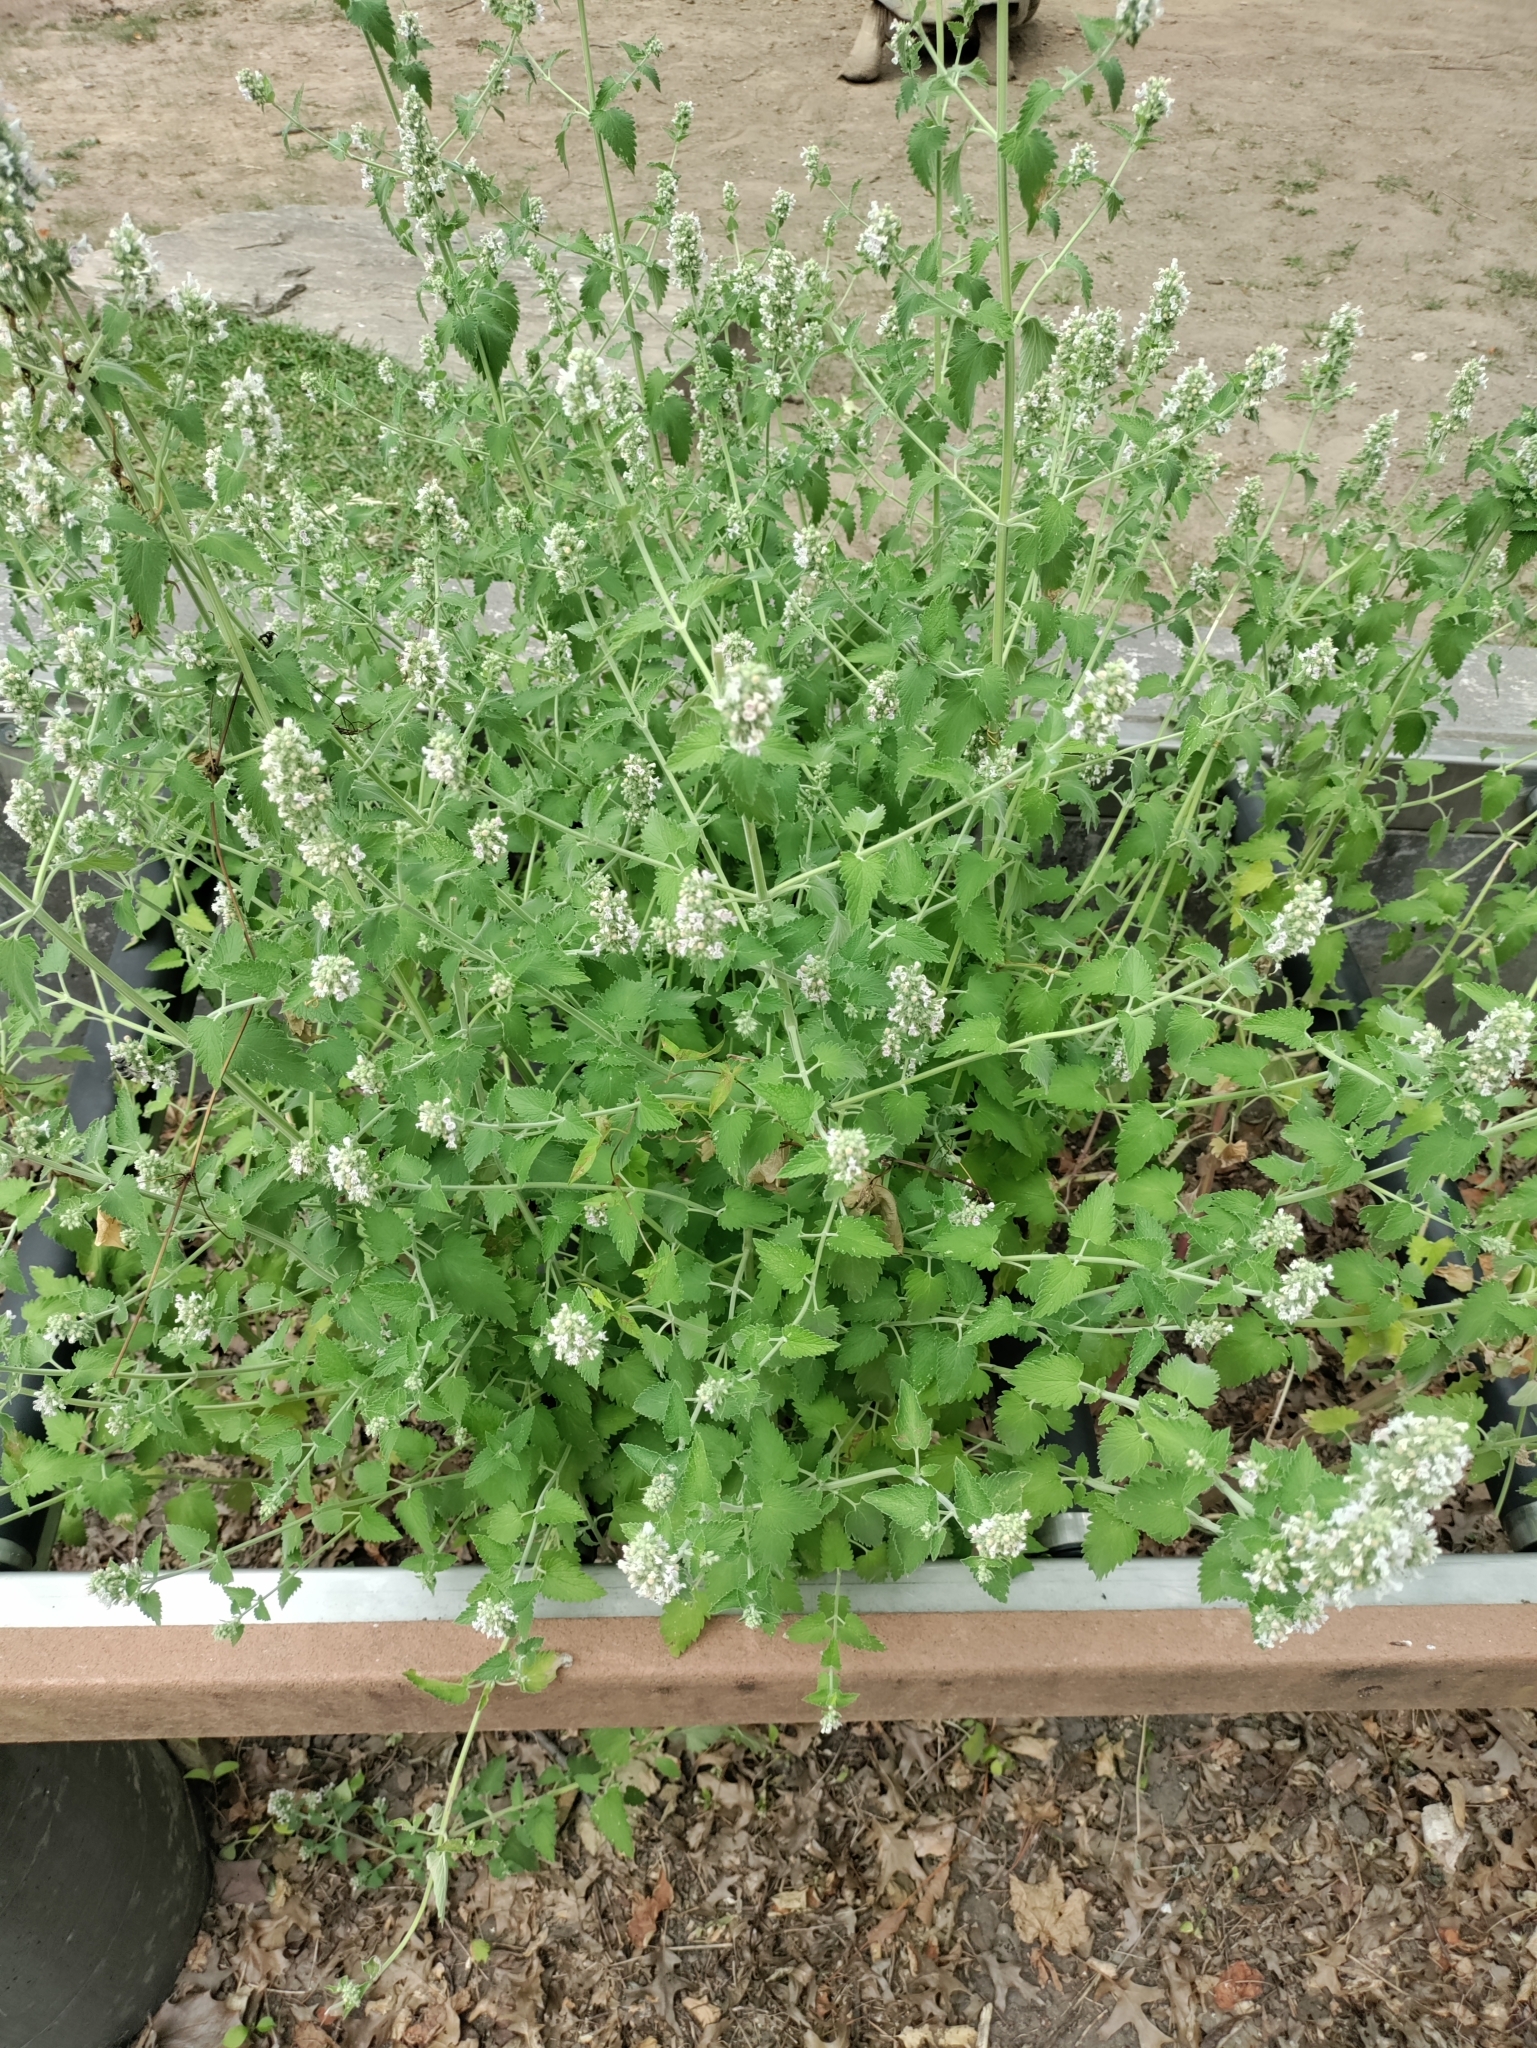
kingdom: Plantae
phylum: Tracheophyta
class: Magnoliopsida
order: Lamiales
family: Lamiaceae
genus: Nepeta
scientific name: Nepeta cataria
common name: Catnip
